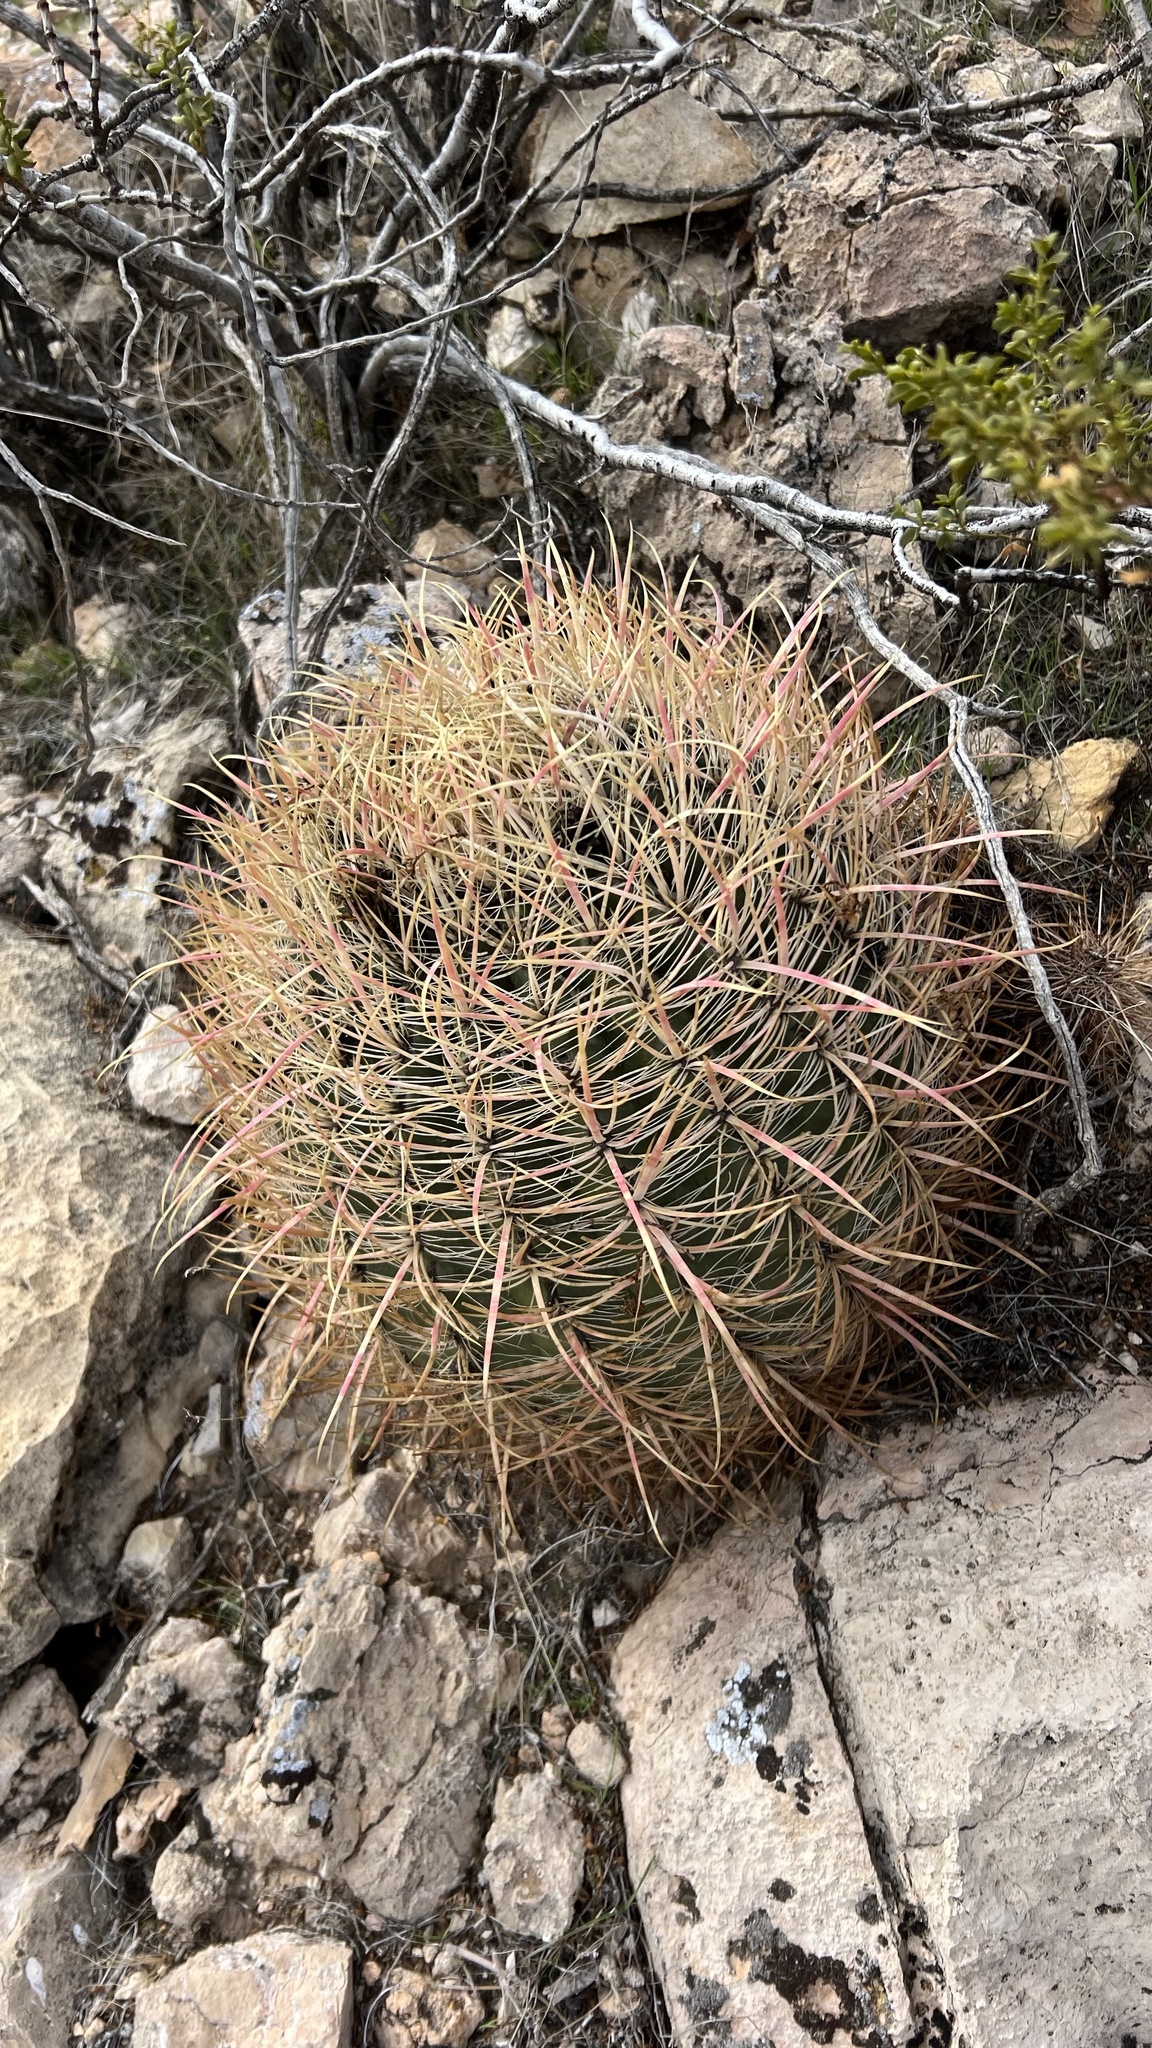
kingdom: Plantae
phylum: Tracheophyta
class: Magnoliopsida
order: Caryophyllales
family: Cactaceae
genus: Ferocactus
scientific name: Ferocactus cylindraceus
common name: California barrel cactus
